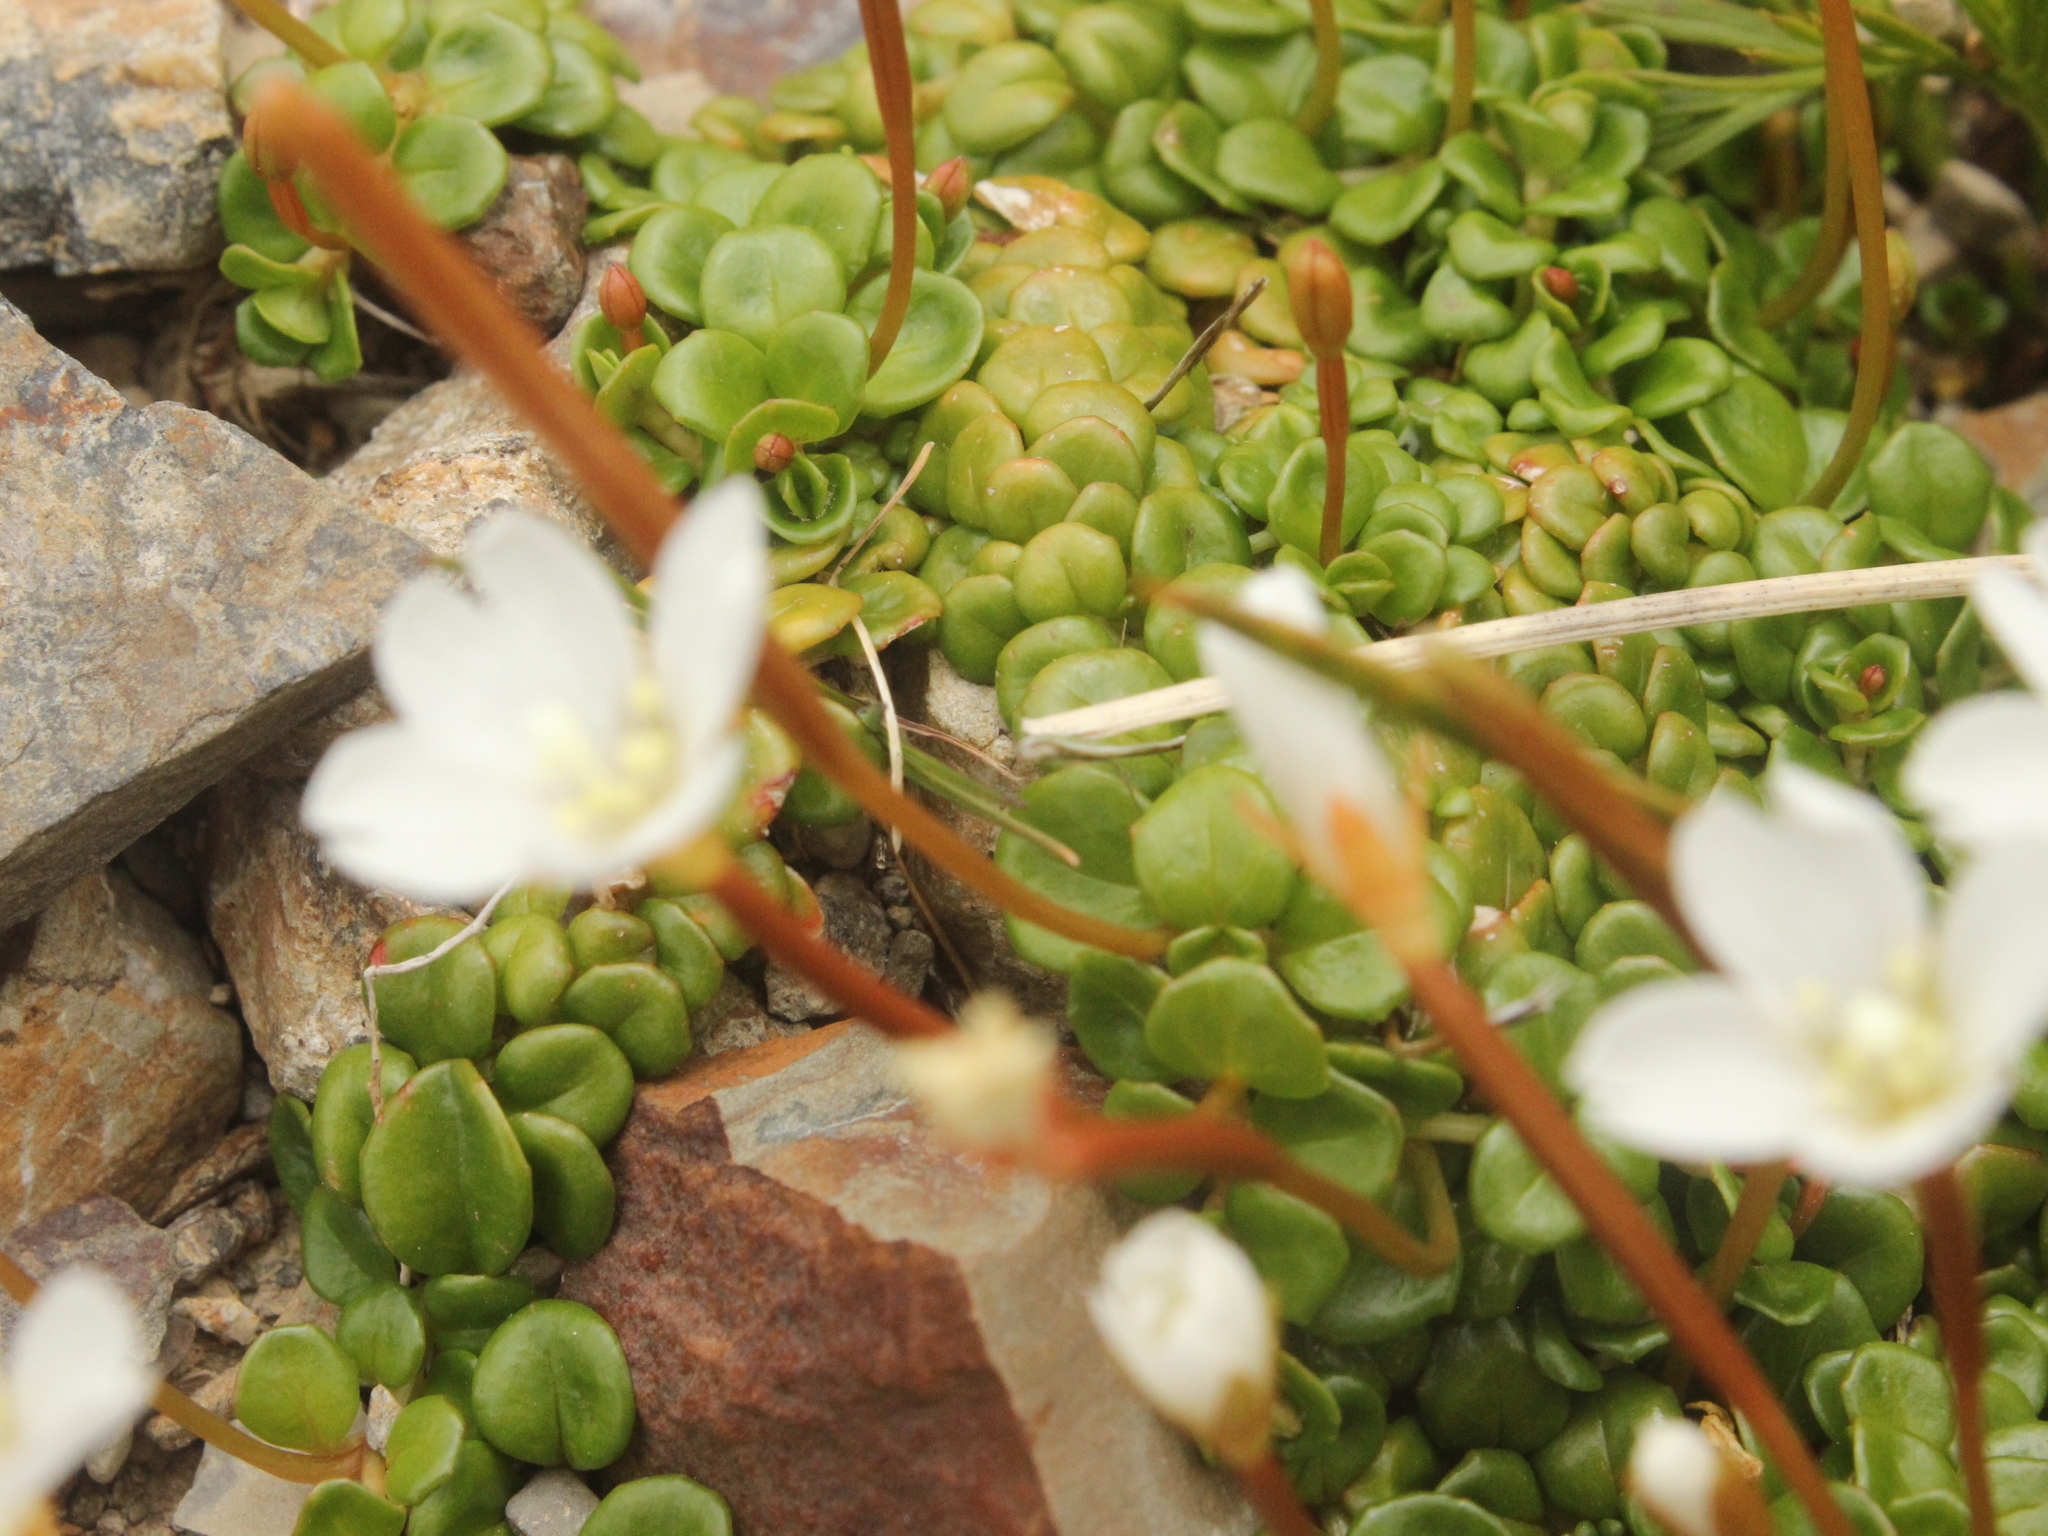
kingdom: Plantae
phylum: Tracheophyta
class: Magnoliopsida
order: Myrtales
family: Onagraceae
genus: Epilobium
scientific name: Epilobium pernitens
